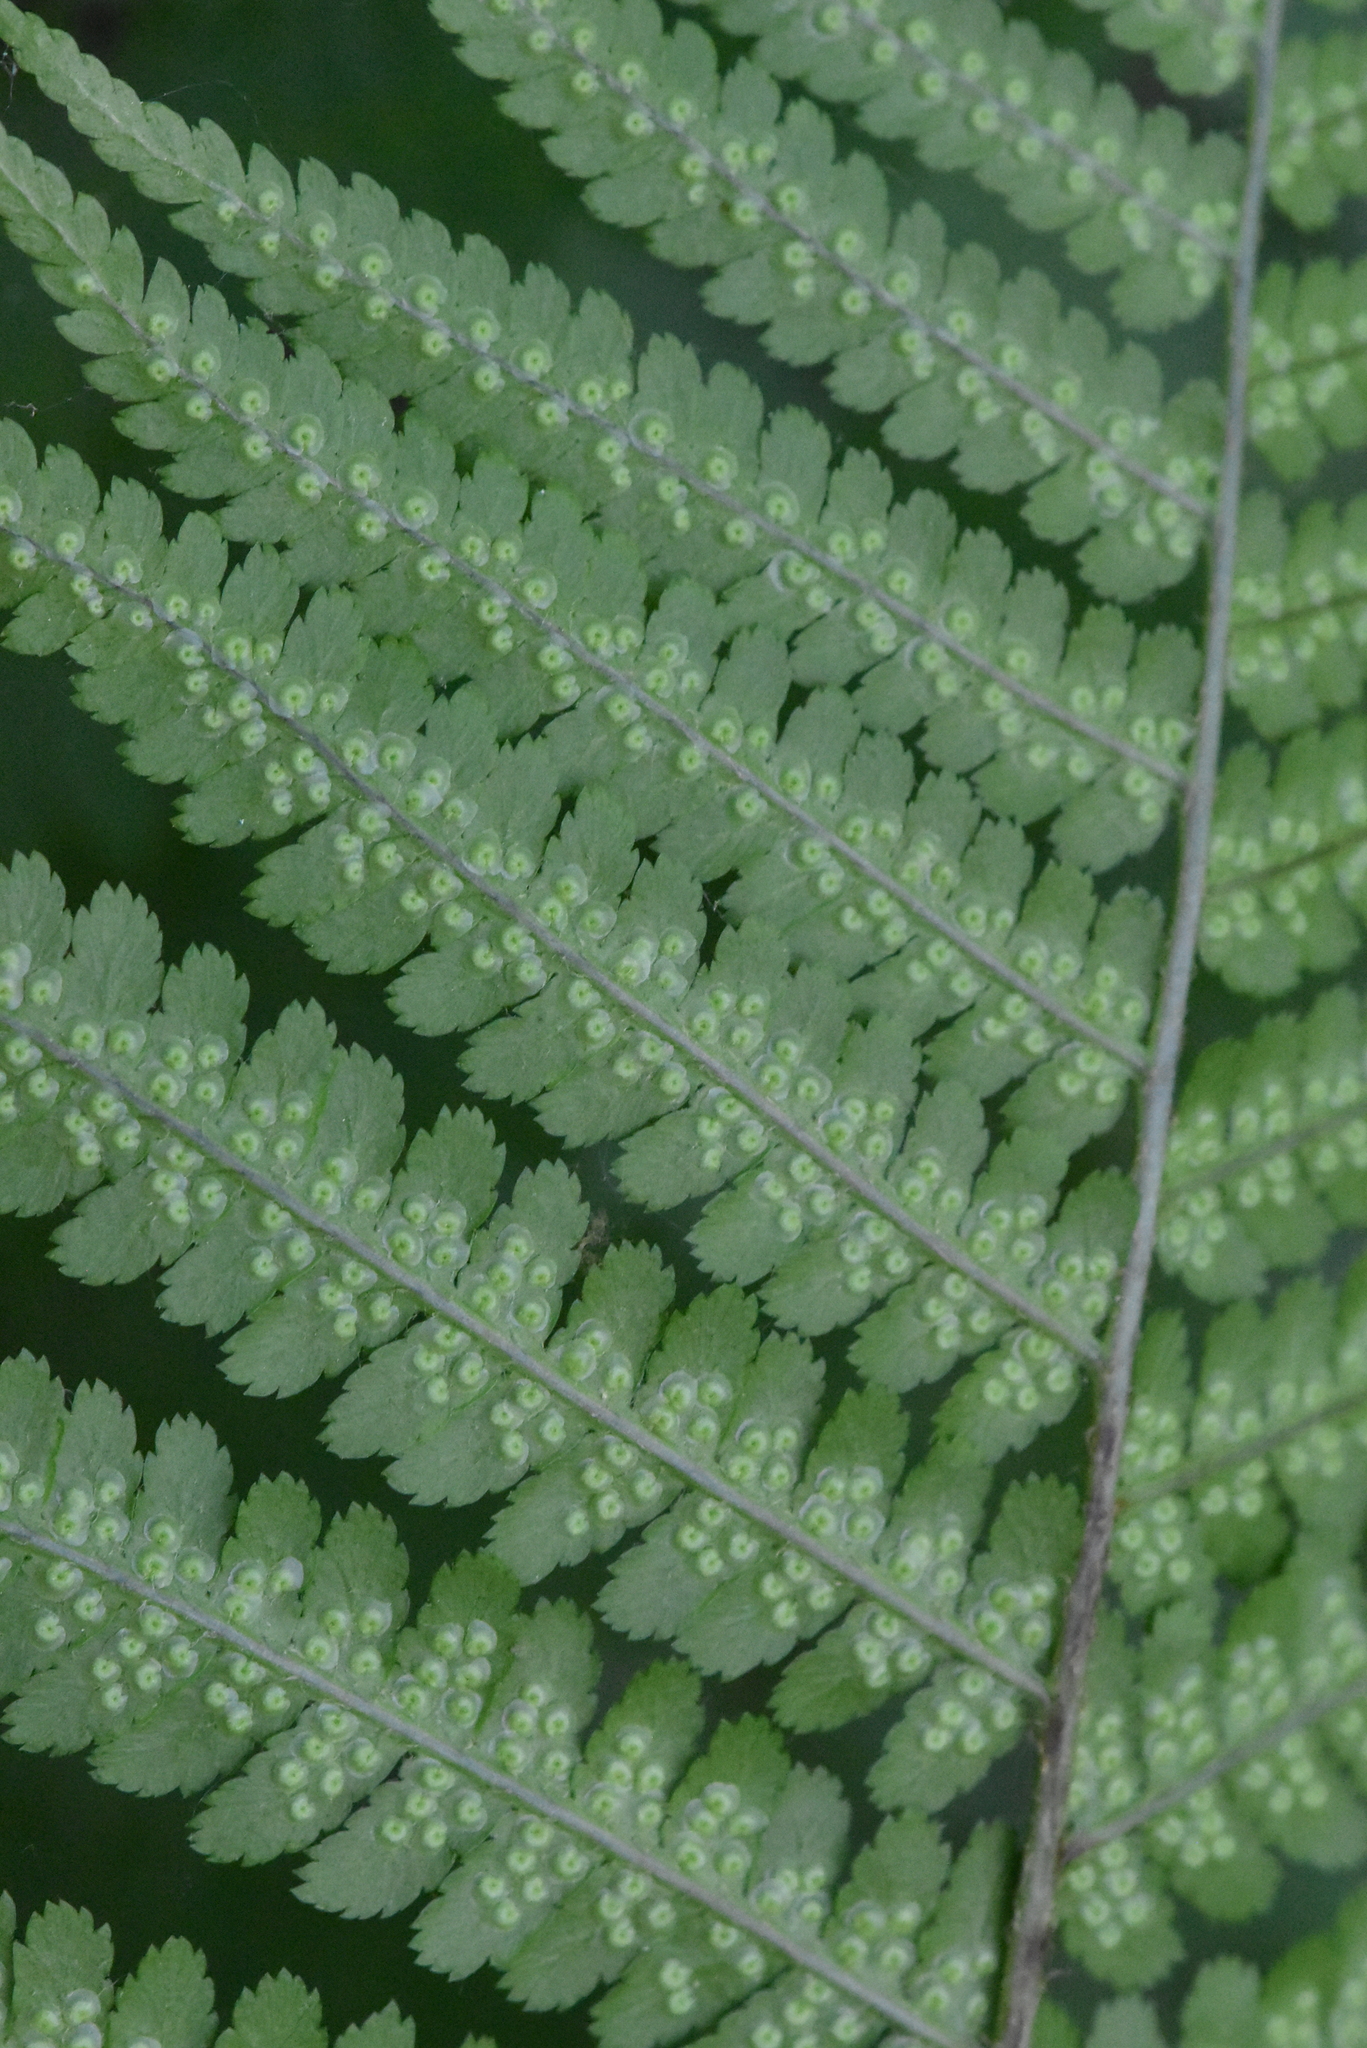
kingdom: Plantae
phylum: Tracheophyta
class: Polypodiopsida
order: Polypodiales
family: Dryopteridaceae
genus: Dryopteris
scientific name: Dryopteris filix-mas
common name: Male fern
